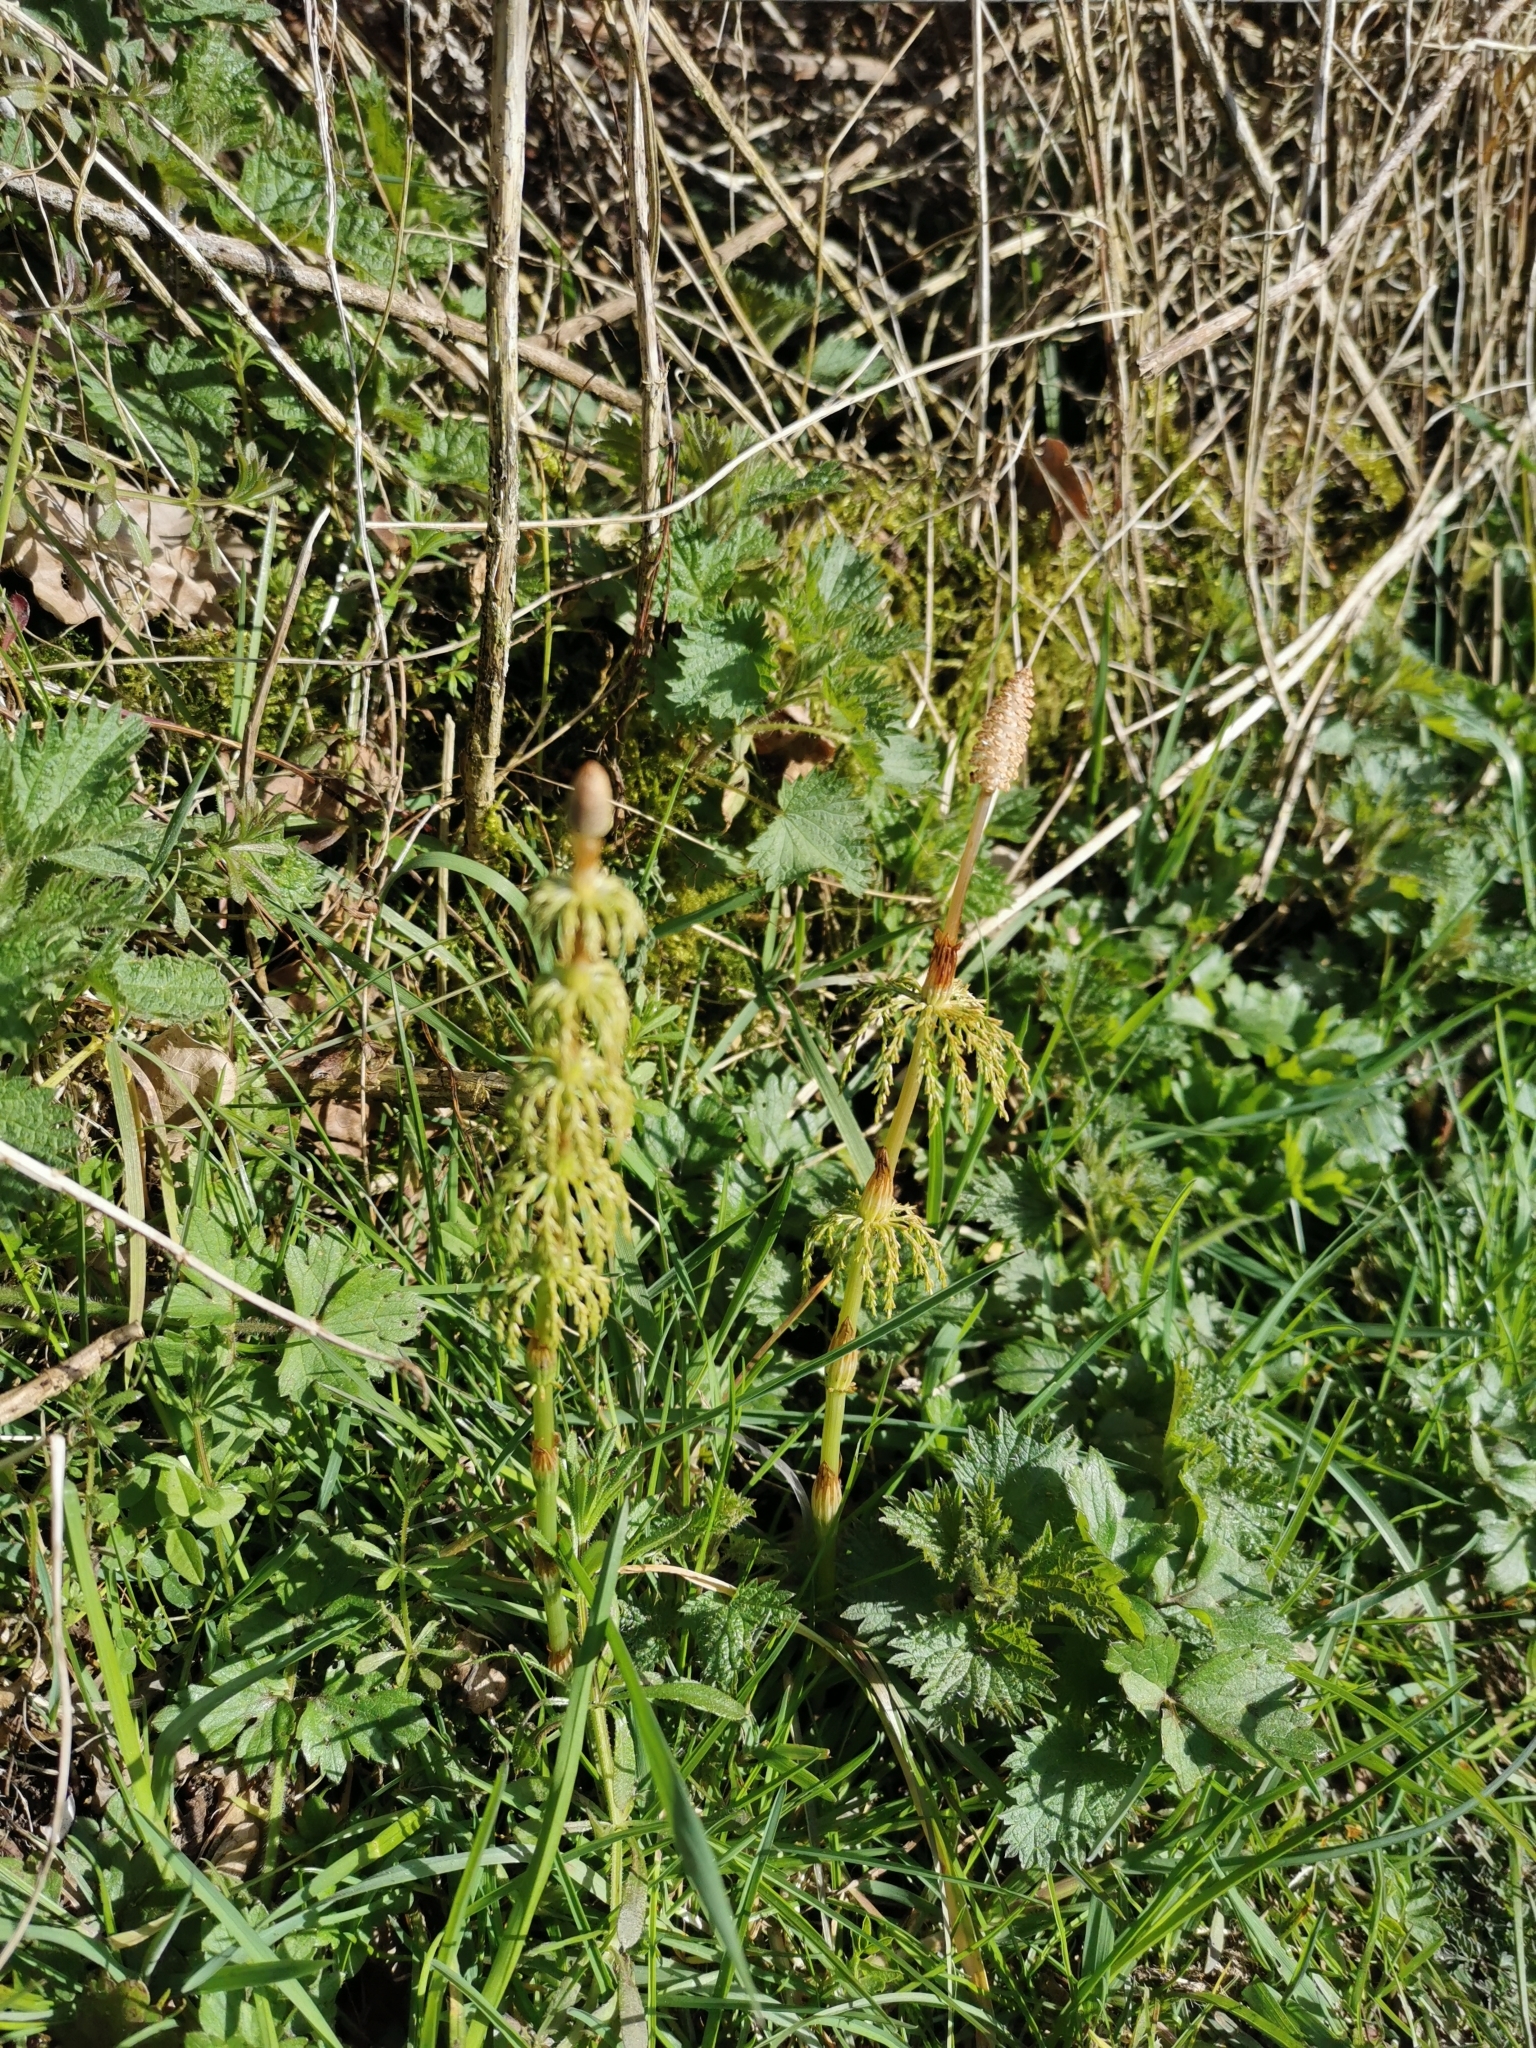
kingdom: Plantae
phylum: Tracheophyta
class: Polypodiopsida
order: Equisetales
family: Equisetaceae
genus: Equisetum
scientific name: Equisetum sylvaticum
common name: Wood horsetail
